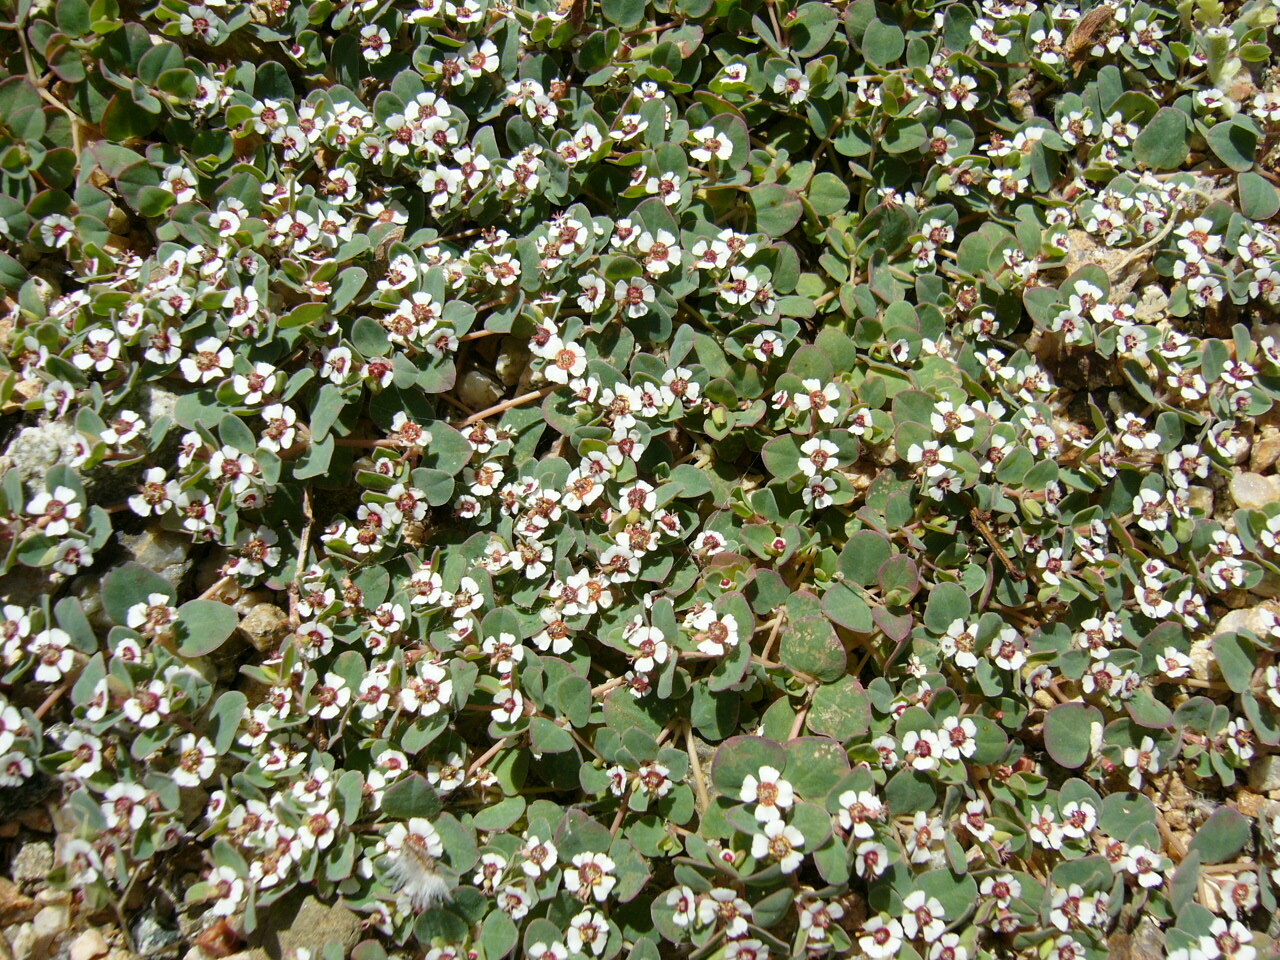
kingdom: Plantae
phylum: Tracheophyta
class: Magnoliopsida
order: Malpighiales
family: Euphorbiaceae
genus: Euphorbia
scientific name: Euphorbia albomarginata
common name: Whitemargin sandmat
